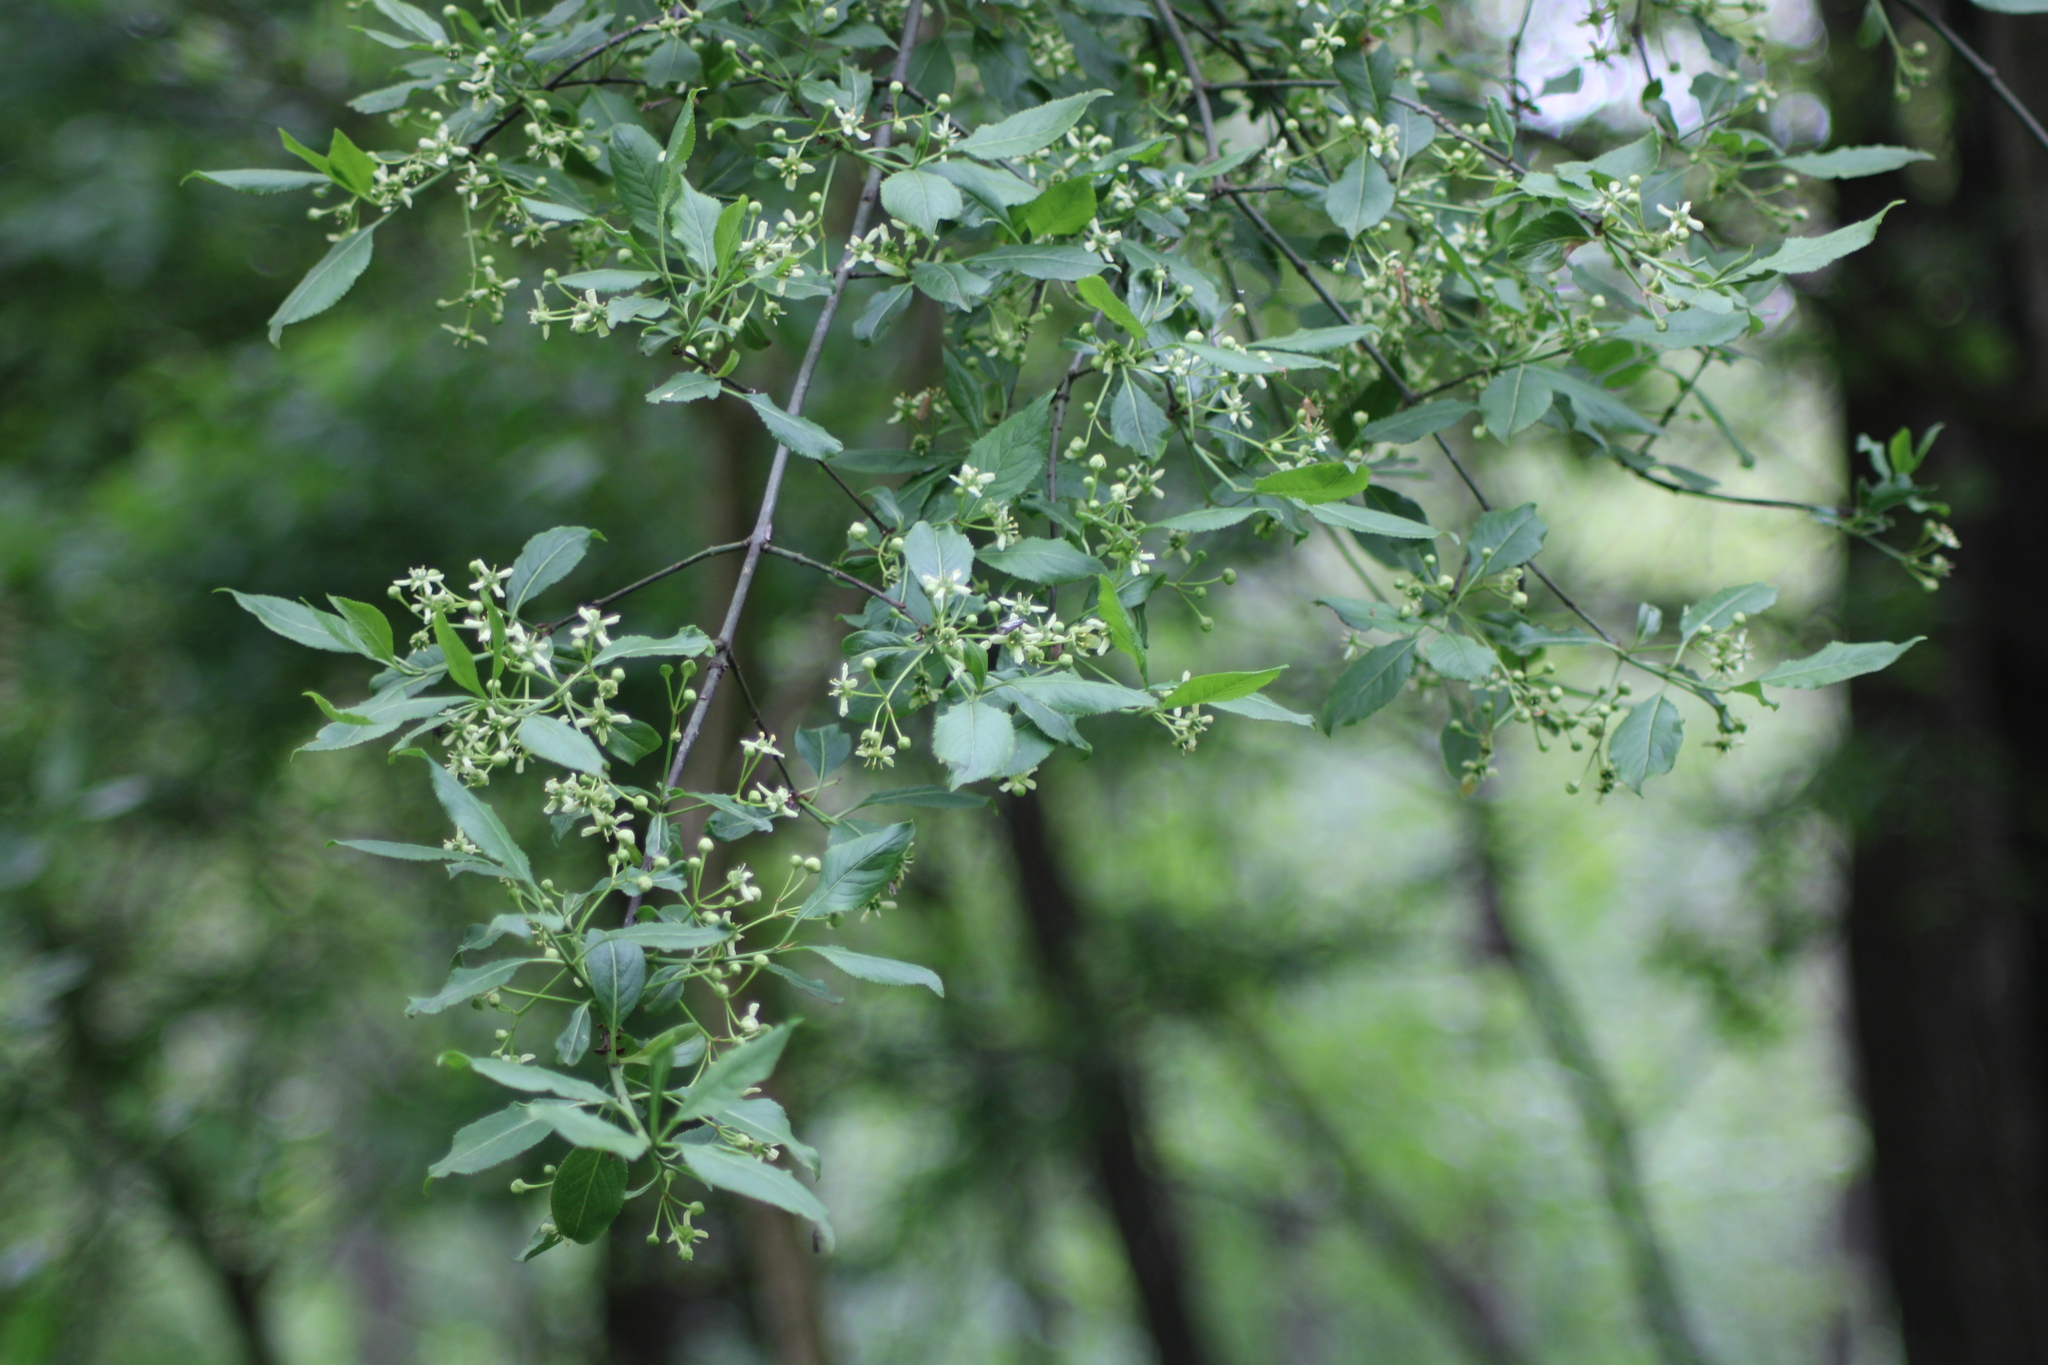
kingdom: Plantae
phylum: Tracheophyta
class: Magnoliopsida
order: Celastrales
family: Celastraceae
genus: Euonymus
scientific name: Euonymus europaeus
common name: Spindle
